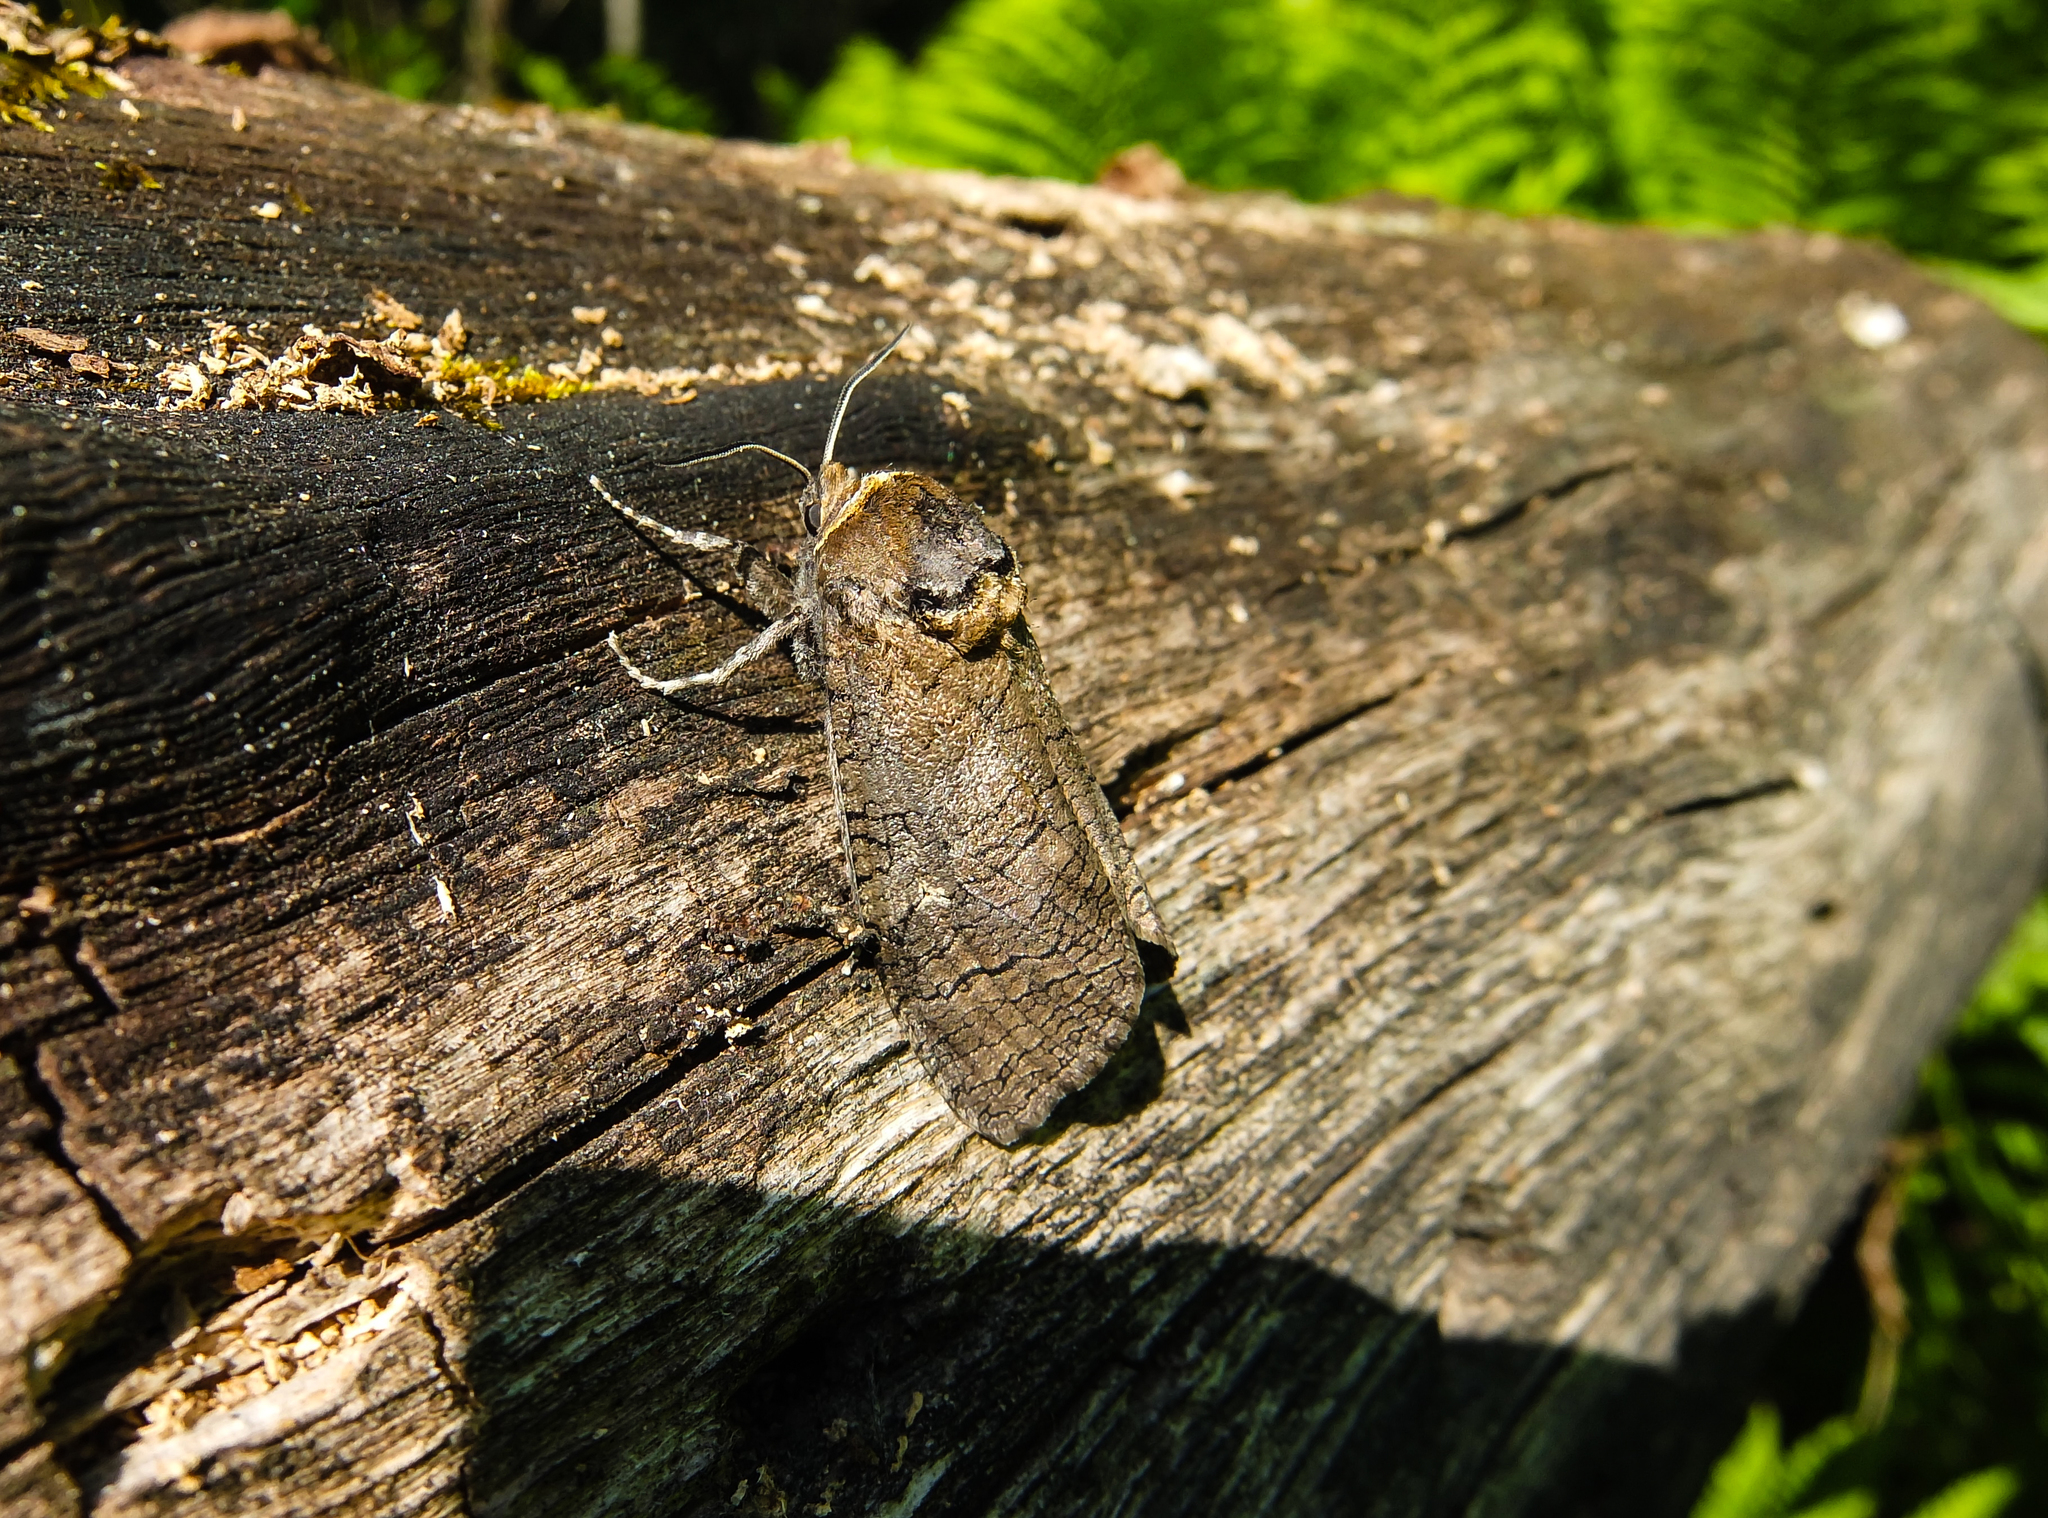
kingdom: Animalia
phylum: Arthropoda
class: Insecta
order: Lepidoptera
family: Cossidae
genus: Cossus
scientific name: Cossus cossus
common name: Goat moth
